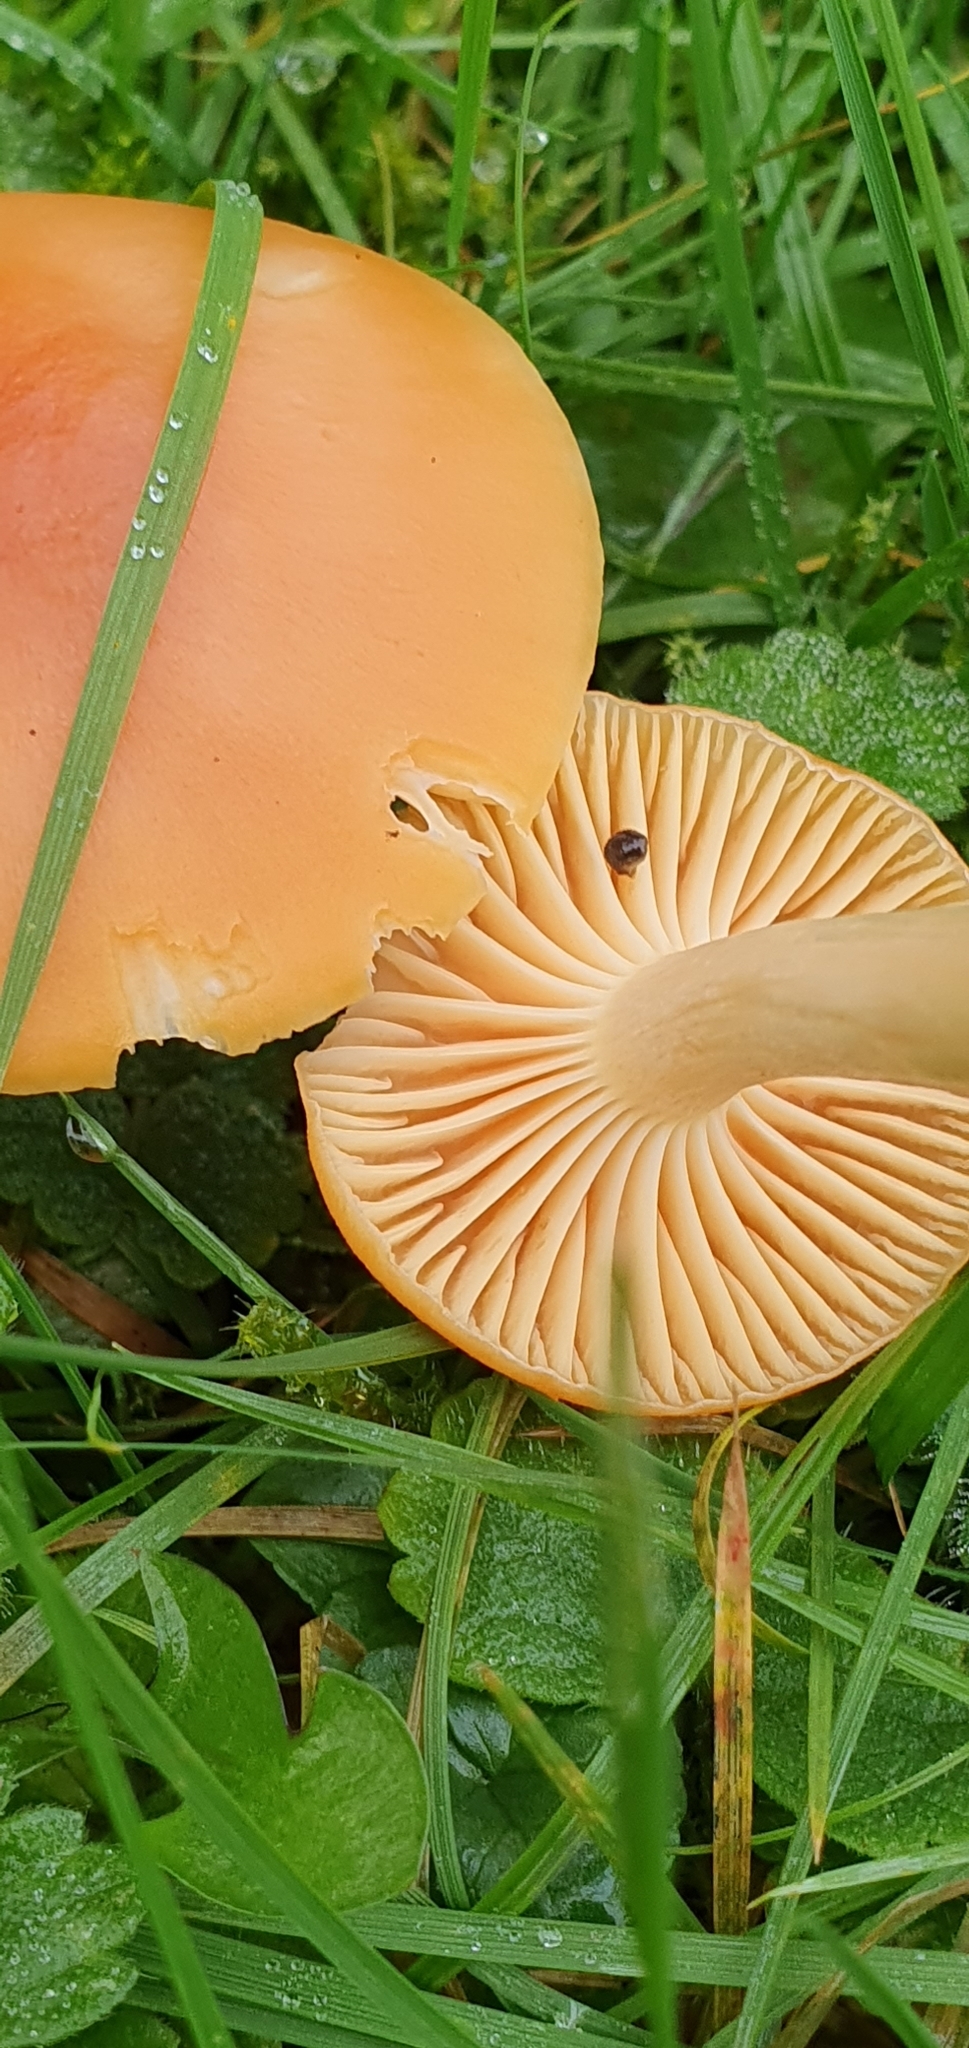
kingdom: Fungi
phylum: Basidiomycota
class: Agaricomycetes
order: Agaricales
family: Hygrophoraceae
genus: Cuphophyllus
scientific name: Cuphophyllus pratensis
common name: Meadow waxcap
